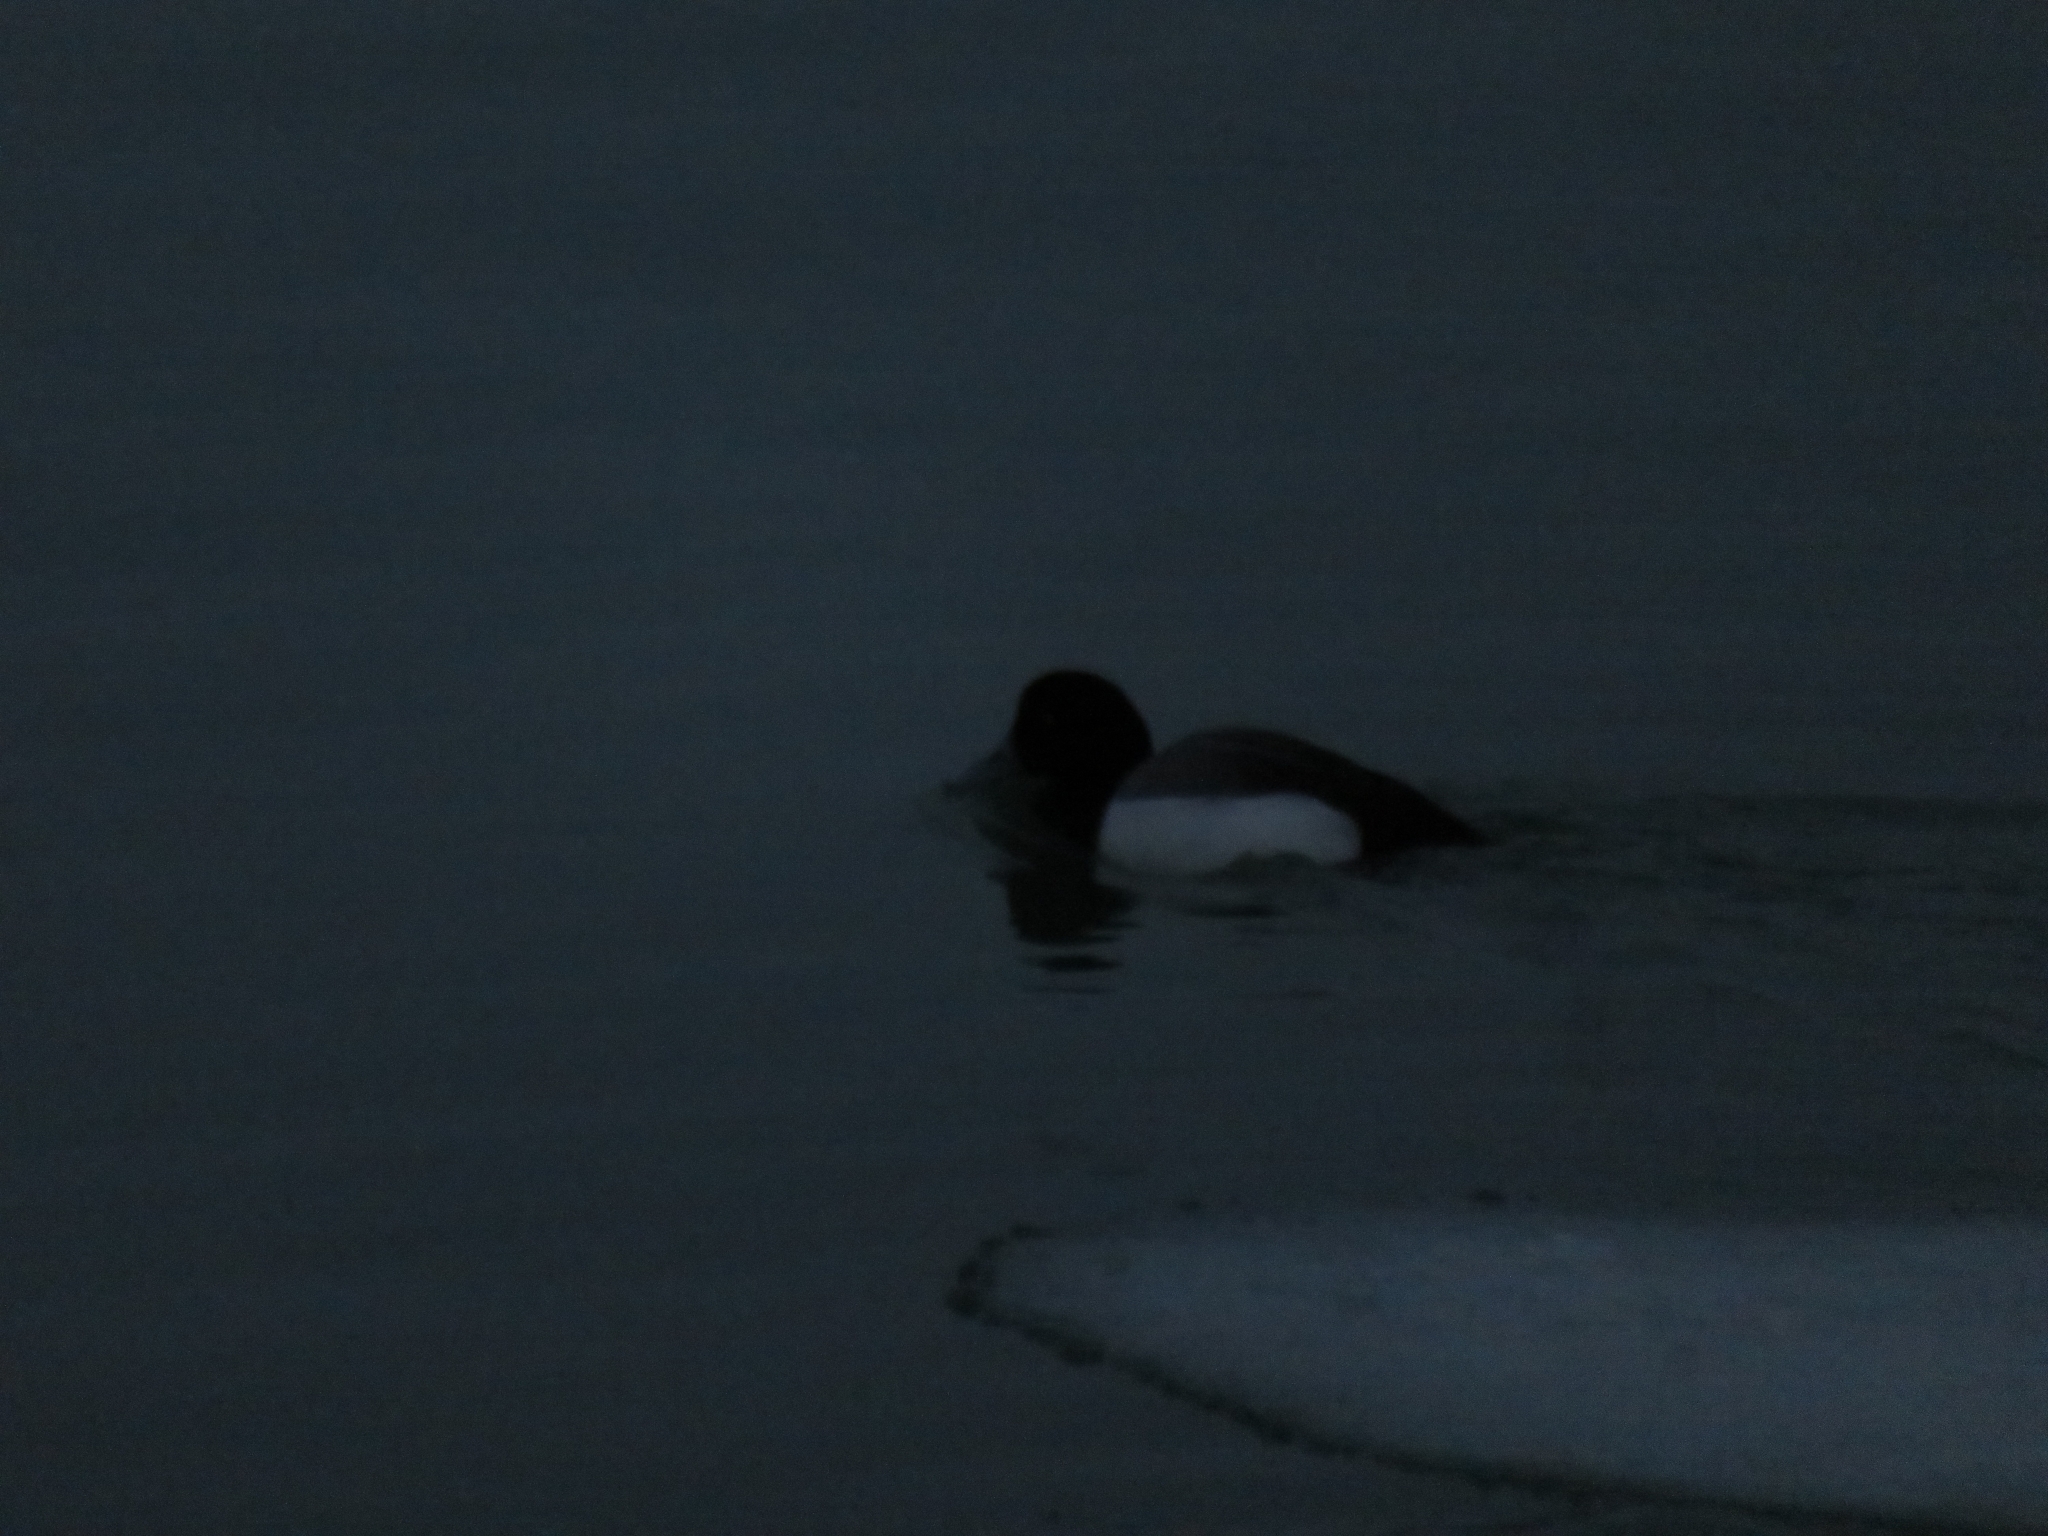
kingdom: Animalia
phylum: Chordata
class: Aves
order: Anseriformes
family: Anatidae
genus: Aythya
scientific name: Aythya marila
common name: Greater scaup
